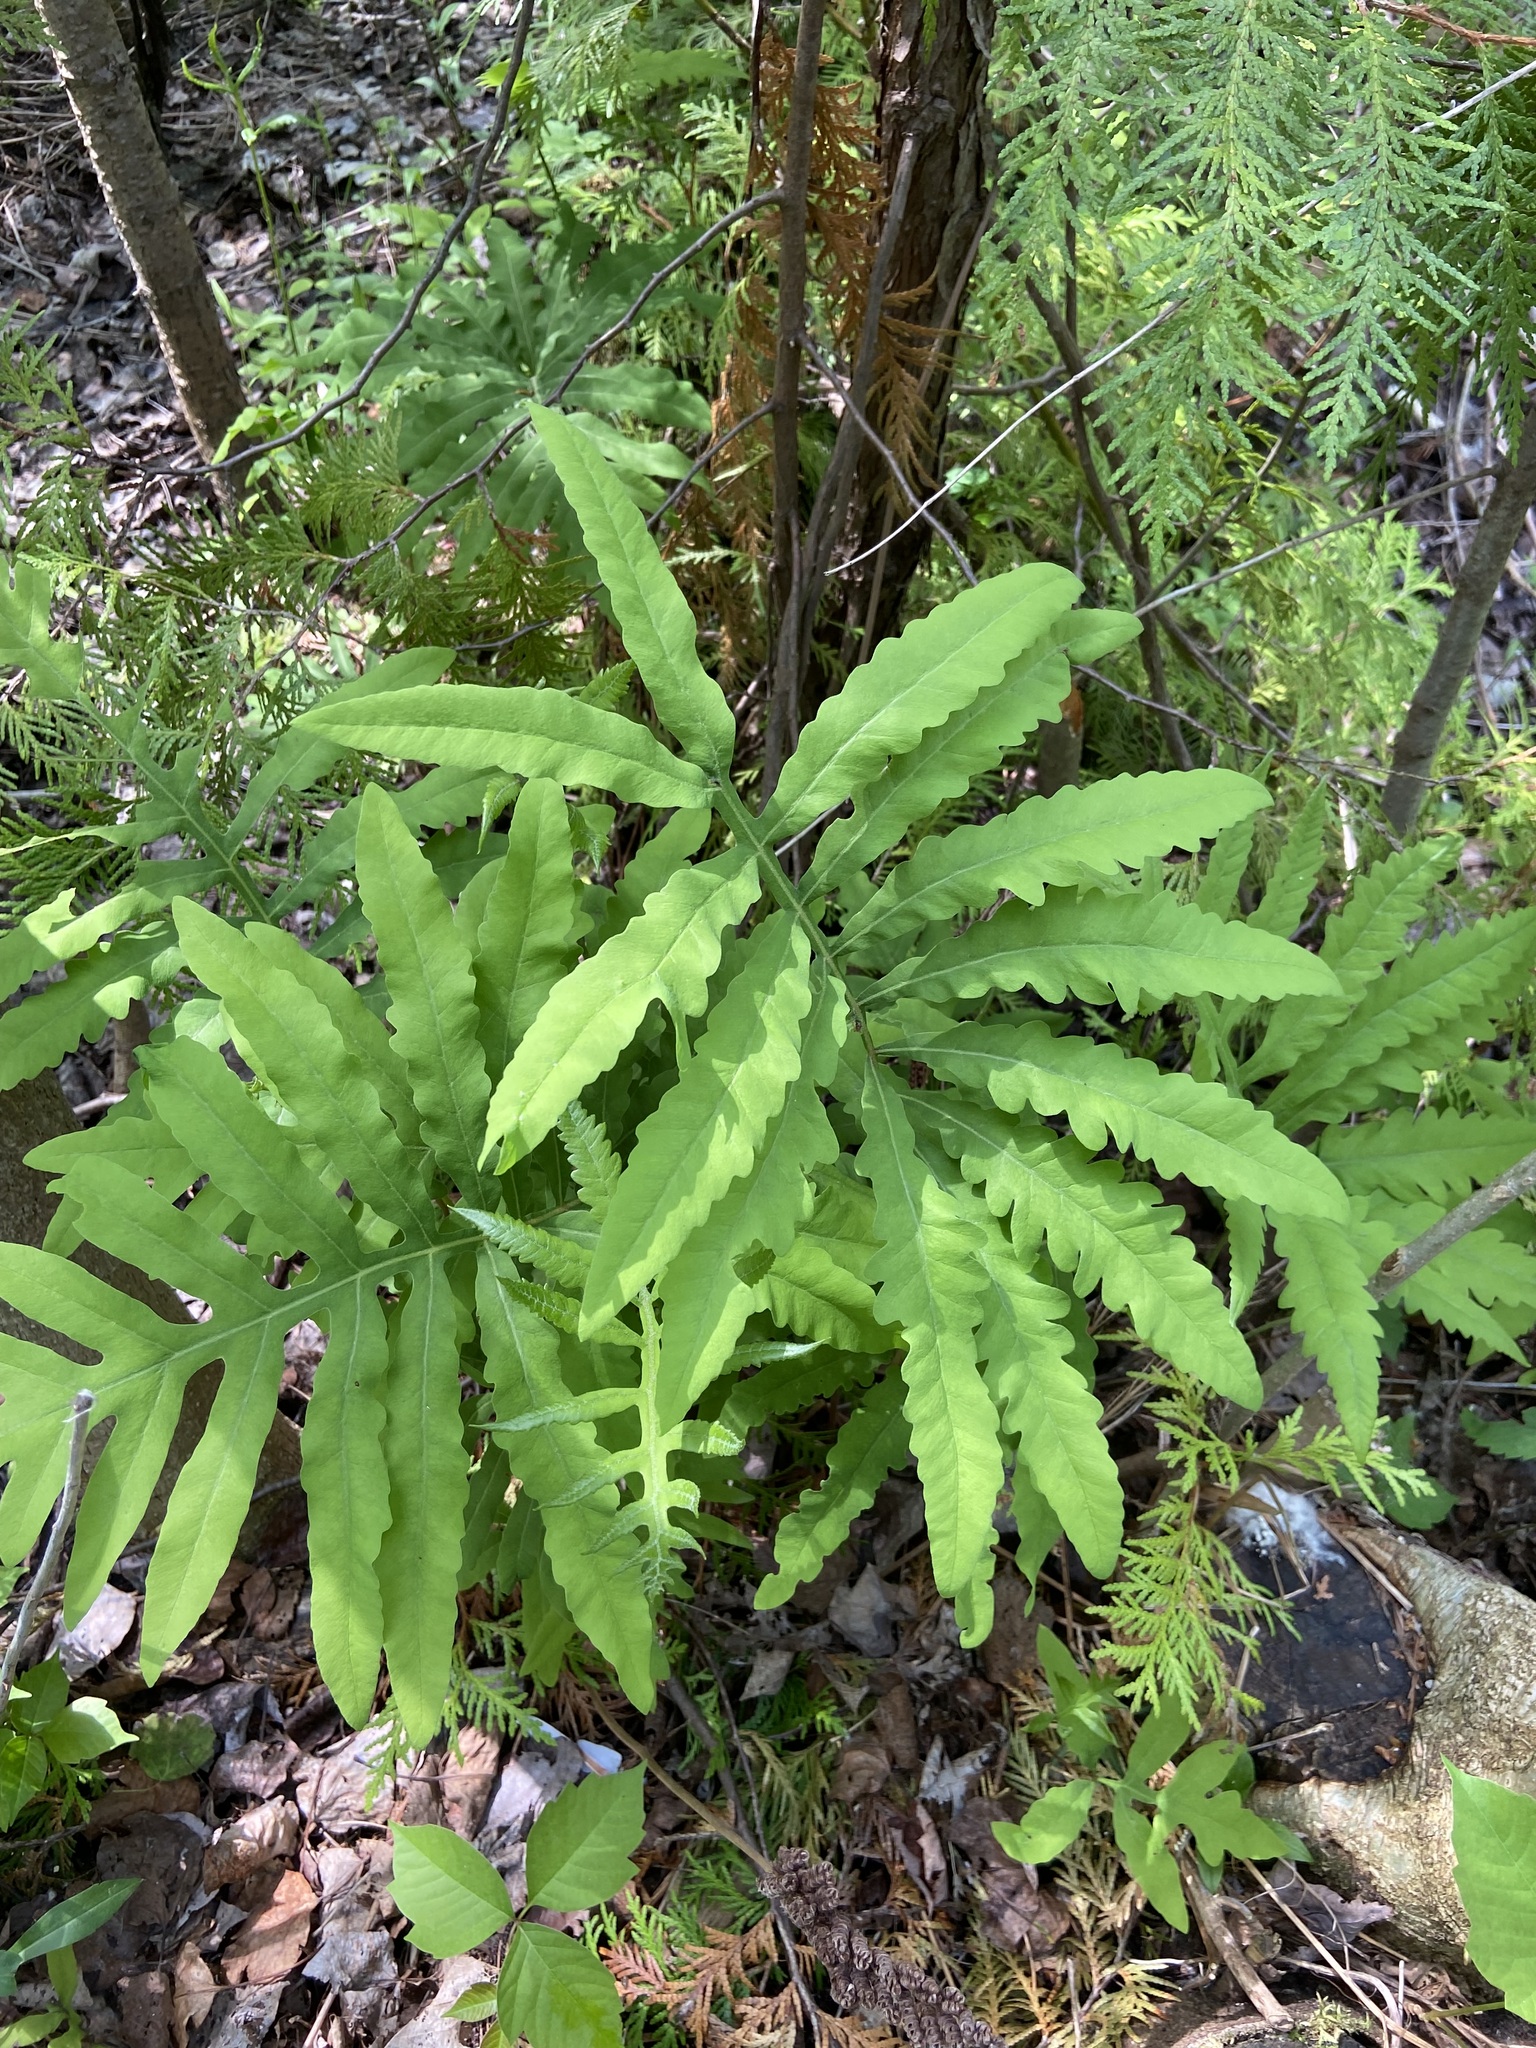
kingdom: Plantae
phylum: Tracheophyta
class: Polypodiopsida
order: Polypodiales
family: Onocleaceae
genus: Onoclea
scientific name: Onoclea sensibilis
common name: Sensitive fern
